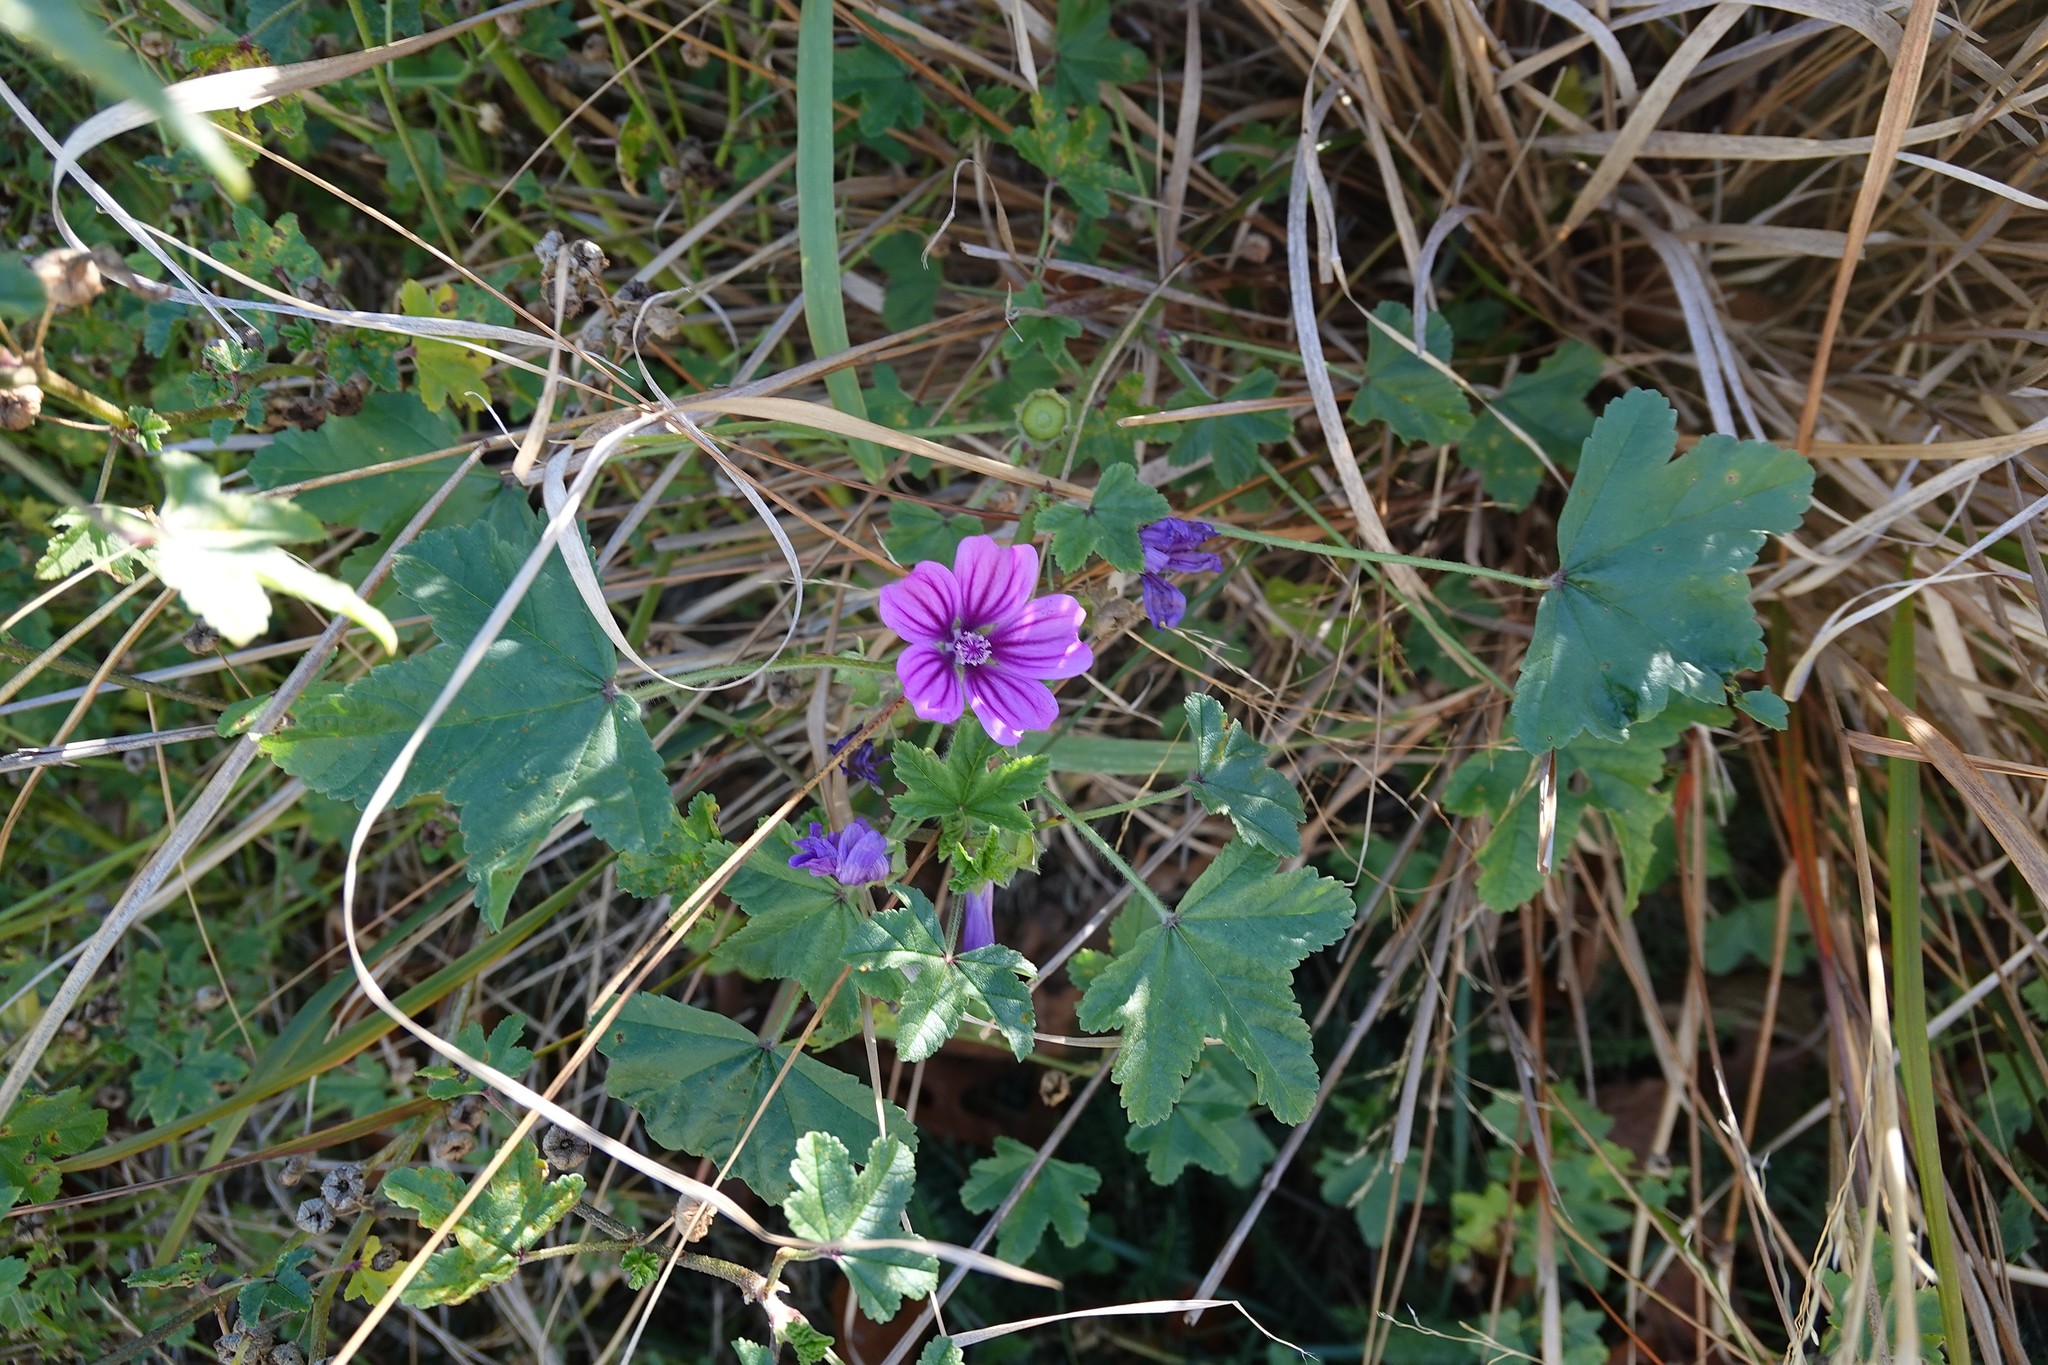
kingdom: Plantae
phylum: Tracheophyta
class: Magnoliopsida
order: Malvales
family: Malvaceae
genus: Malva
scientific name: Malva sylvestris
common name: Common mallow
